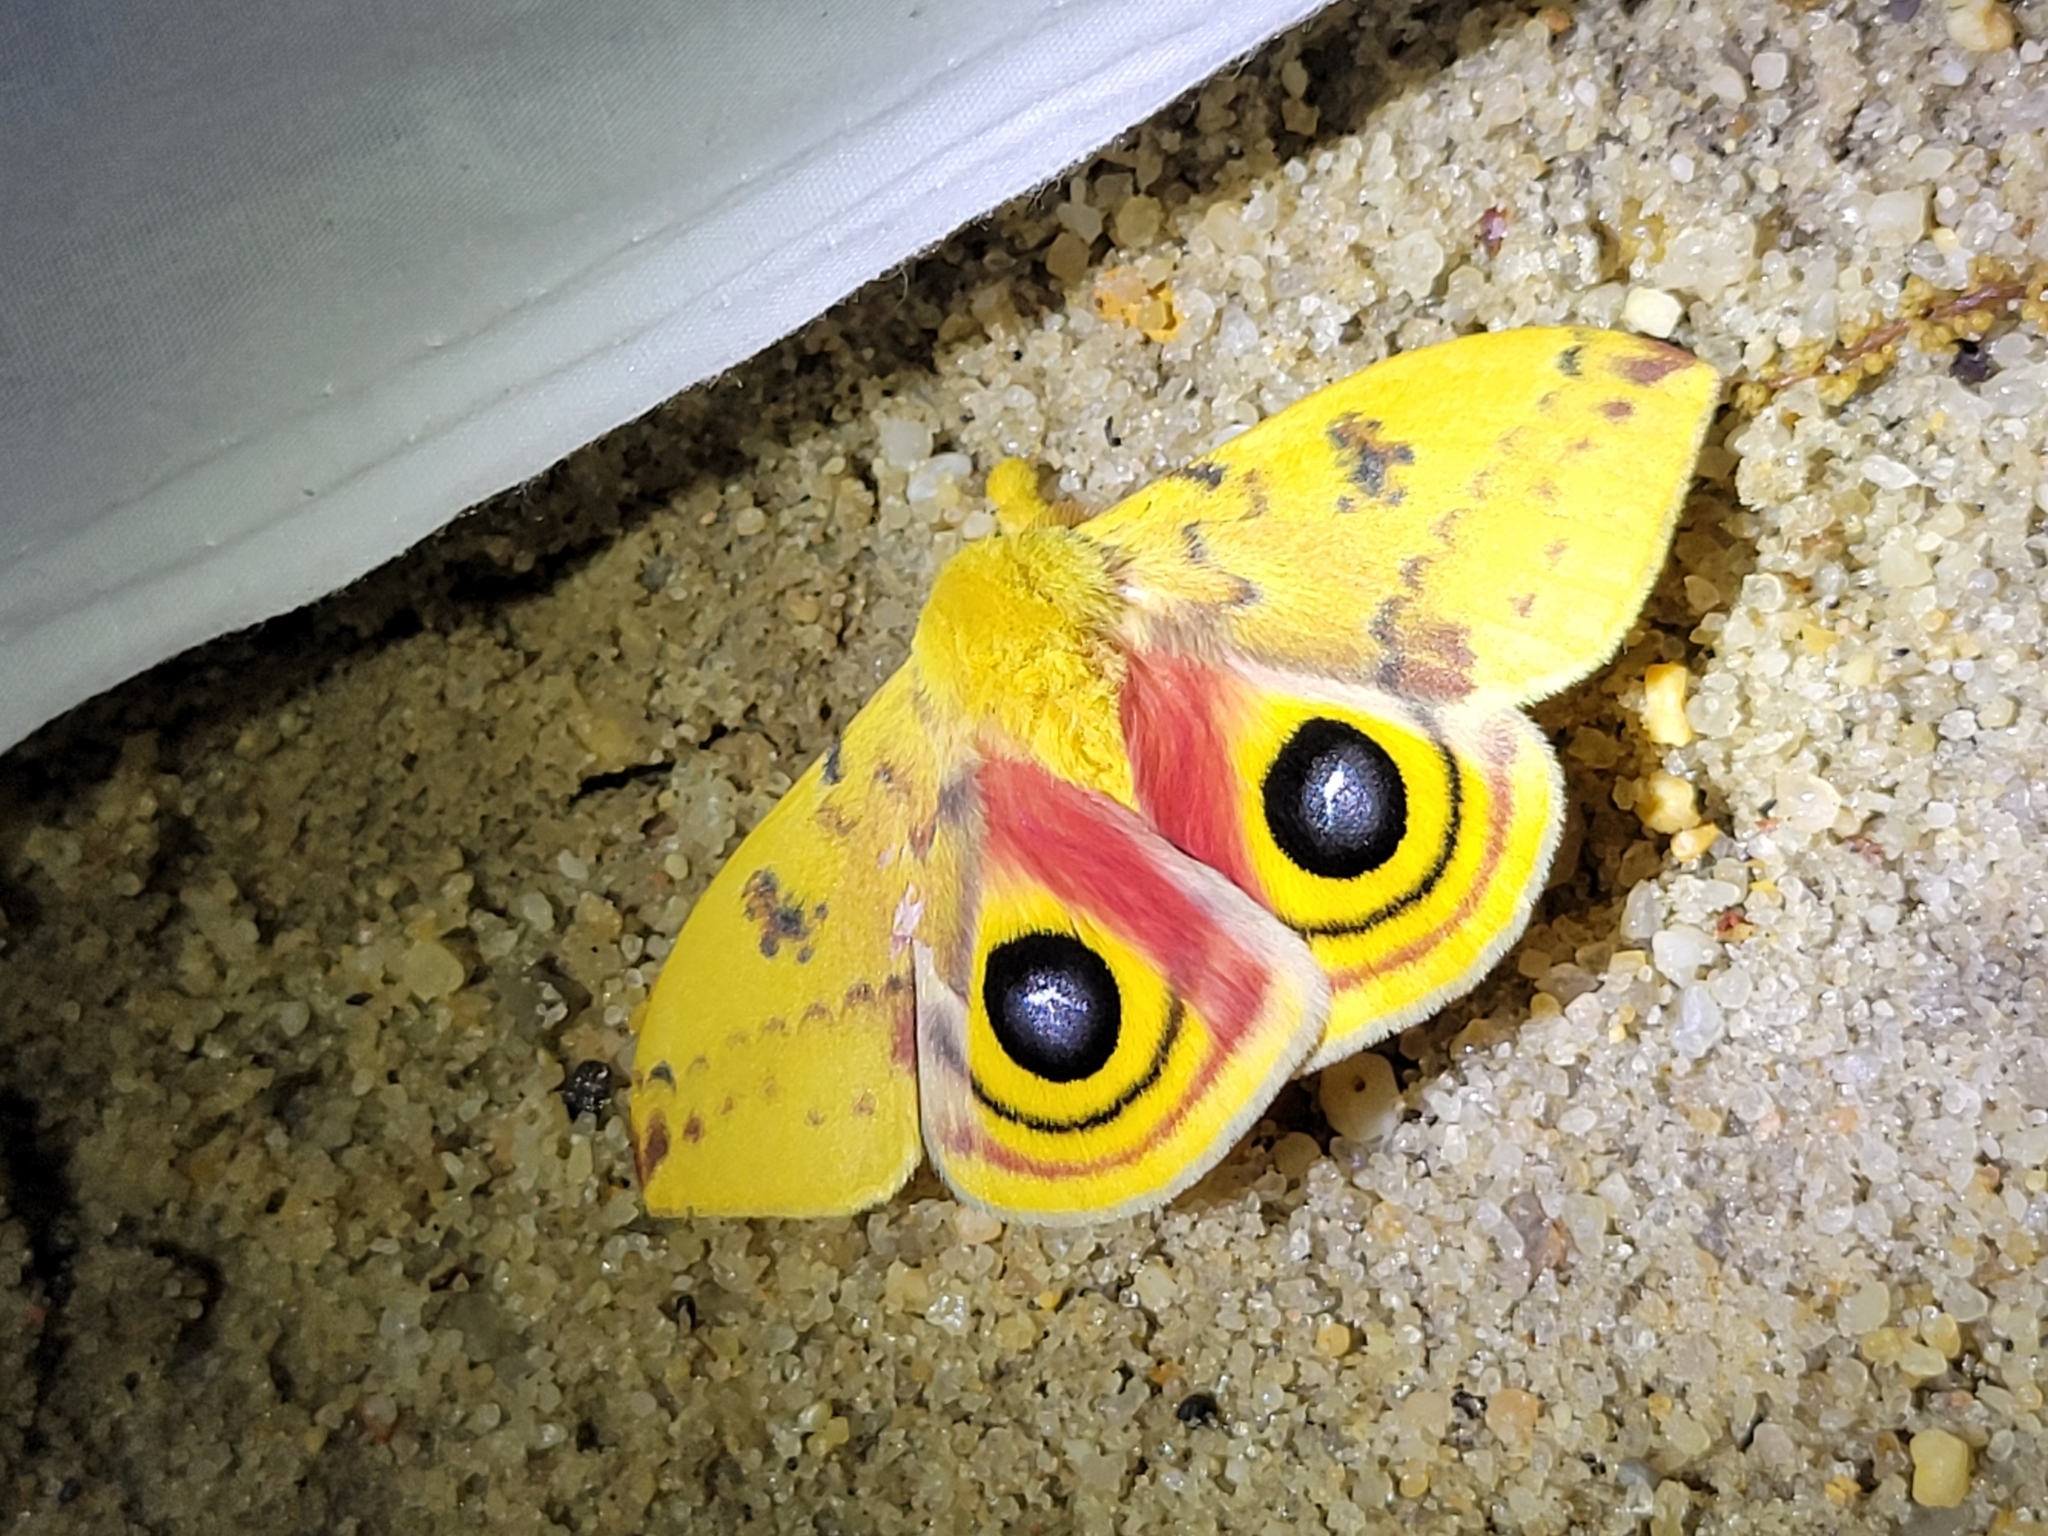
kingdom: Animalia
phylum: Arthropoda
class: Insecta
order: Lepidoptera
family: Saturniidae
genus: Automeris
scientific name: Automeris io
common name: Io moth
